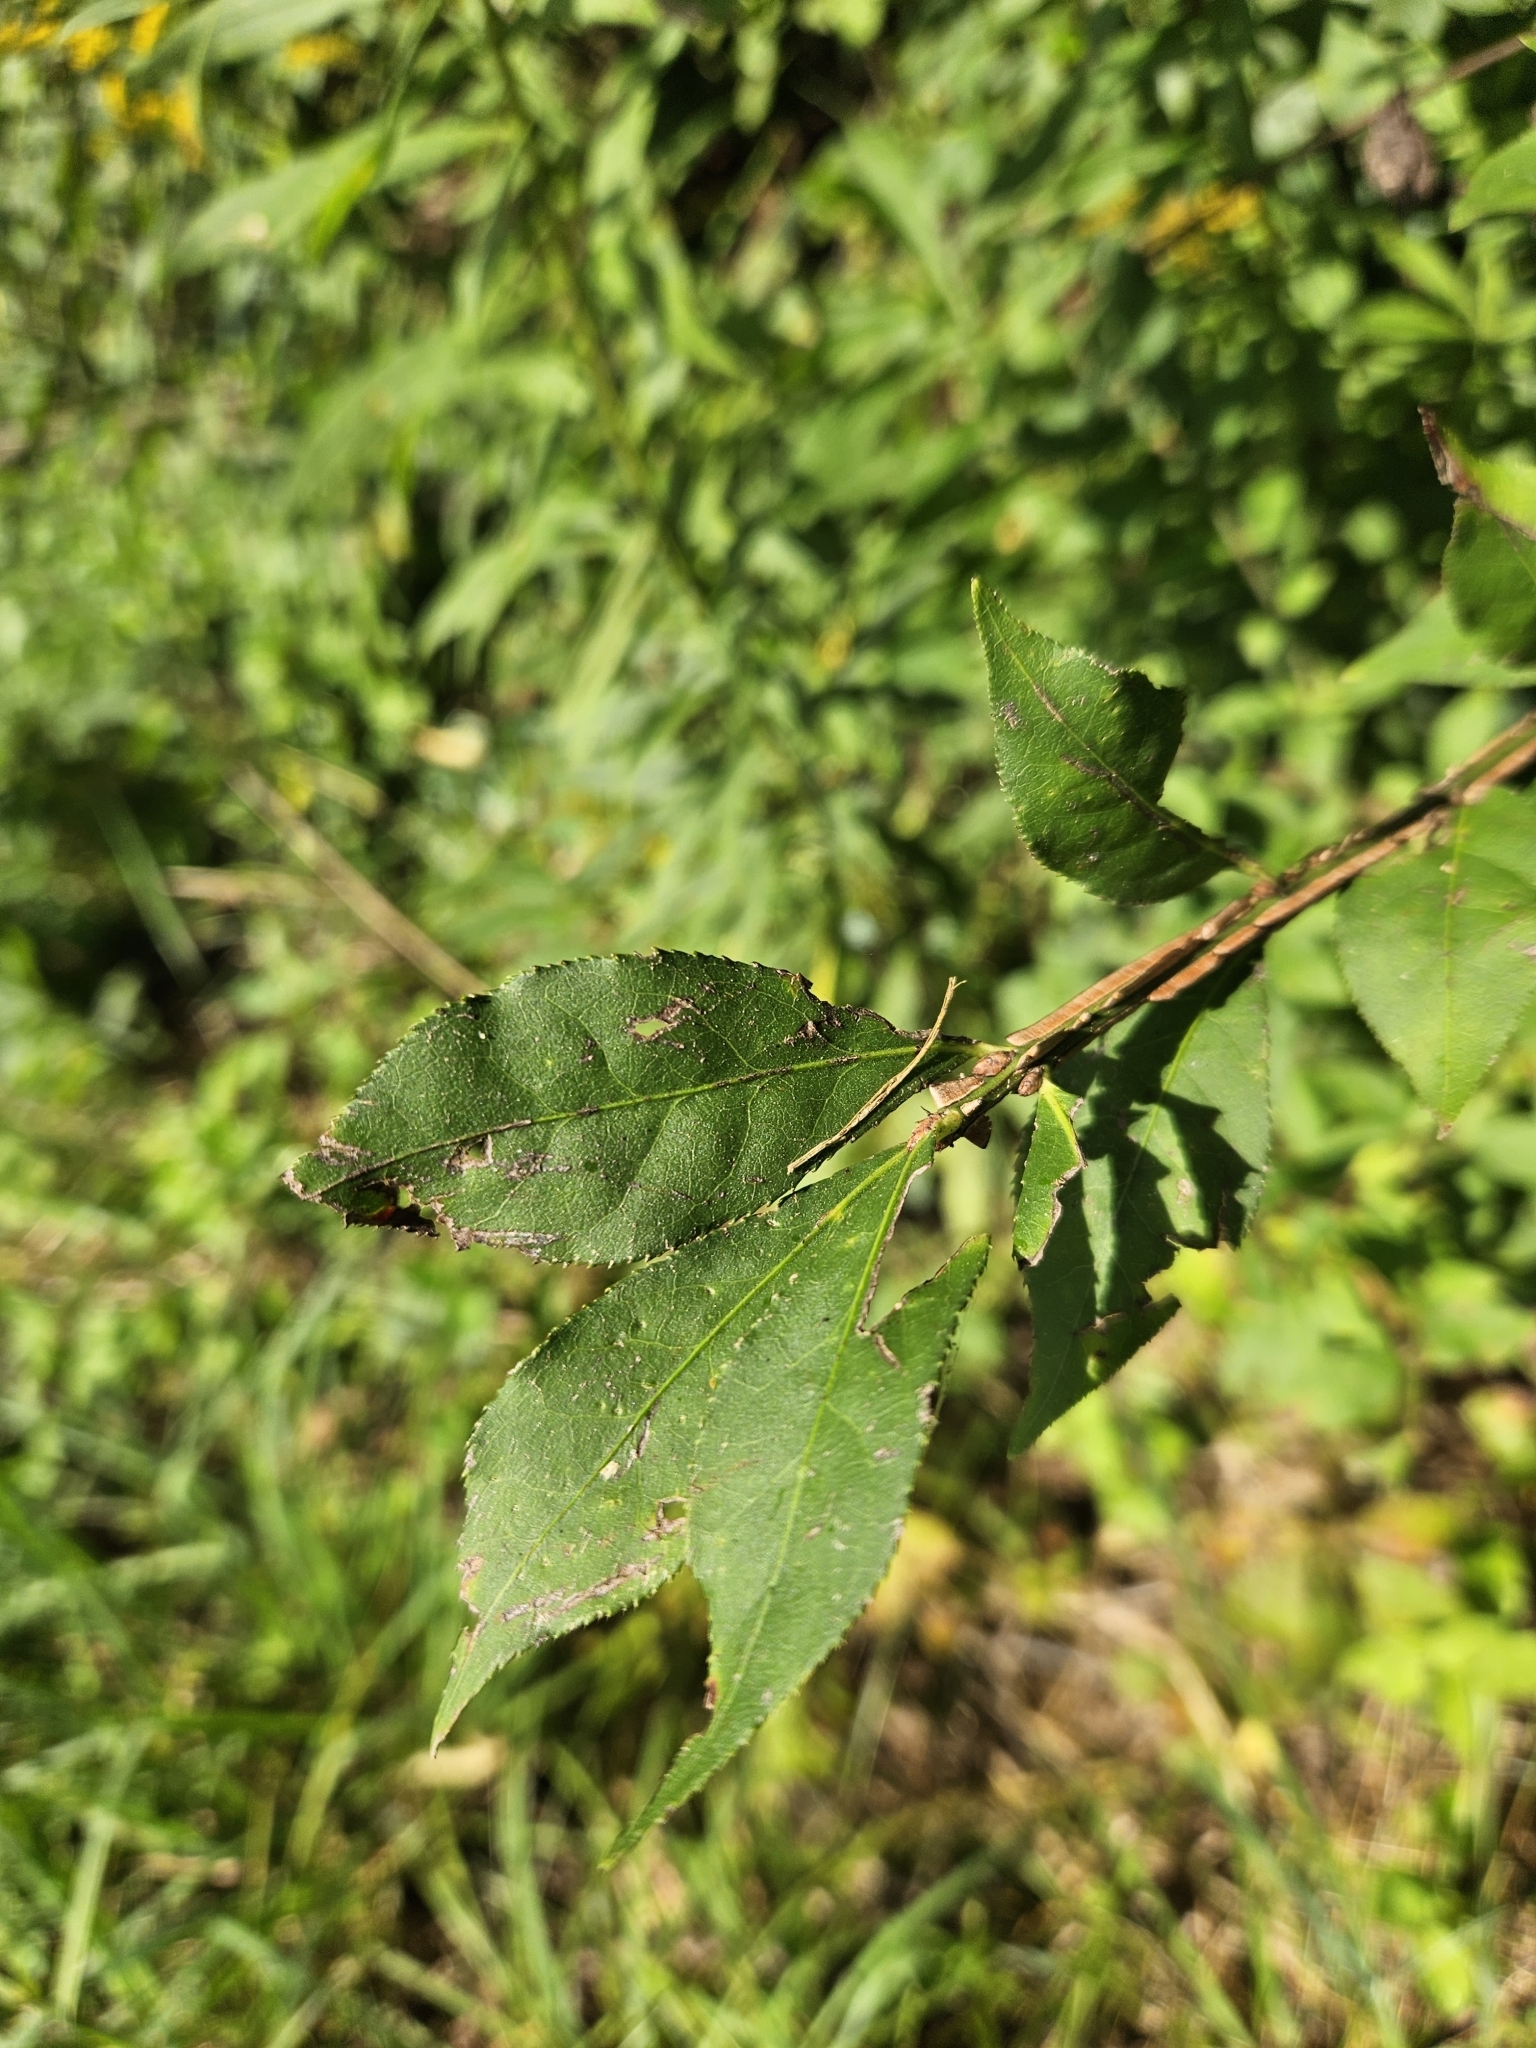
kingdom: Plantae
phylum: Tracheophyta
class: Magnoliopsida
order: Celastrales
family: Celastraceae
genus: Euonymus
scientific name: Euonymus alatus
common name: Winged euonymus
